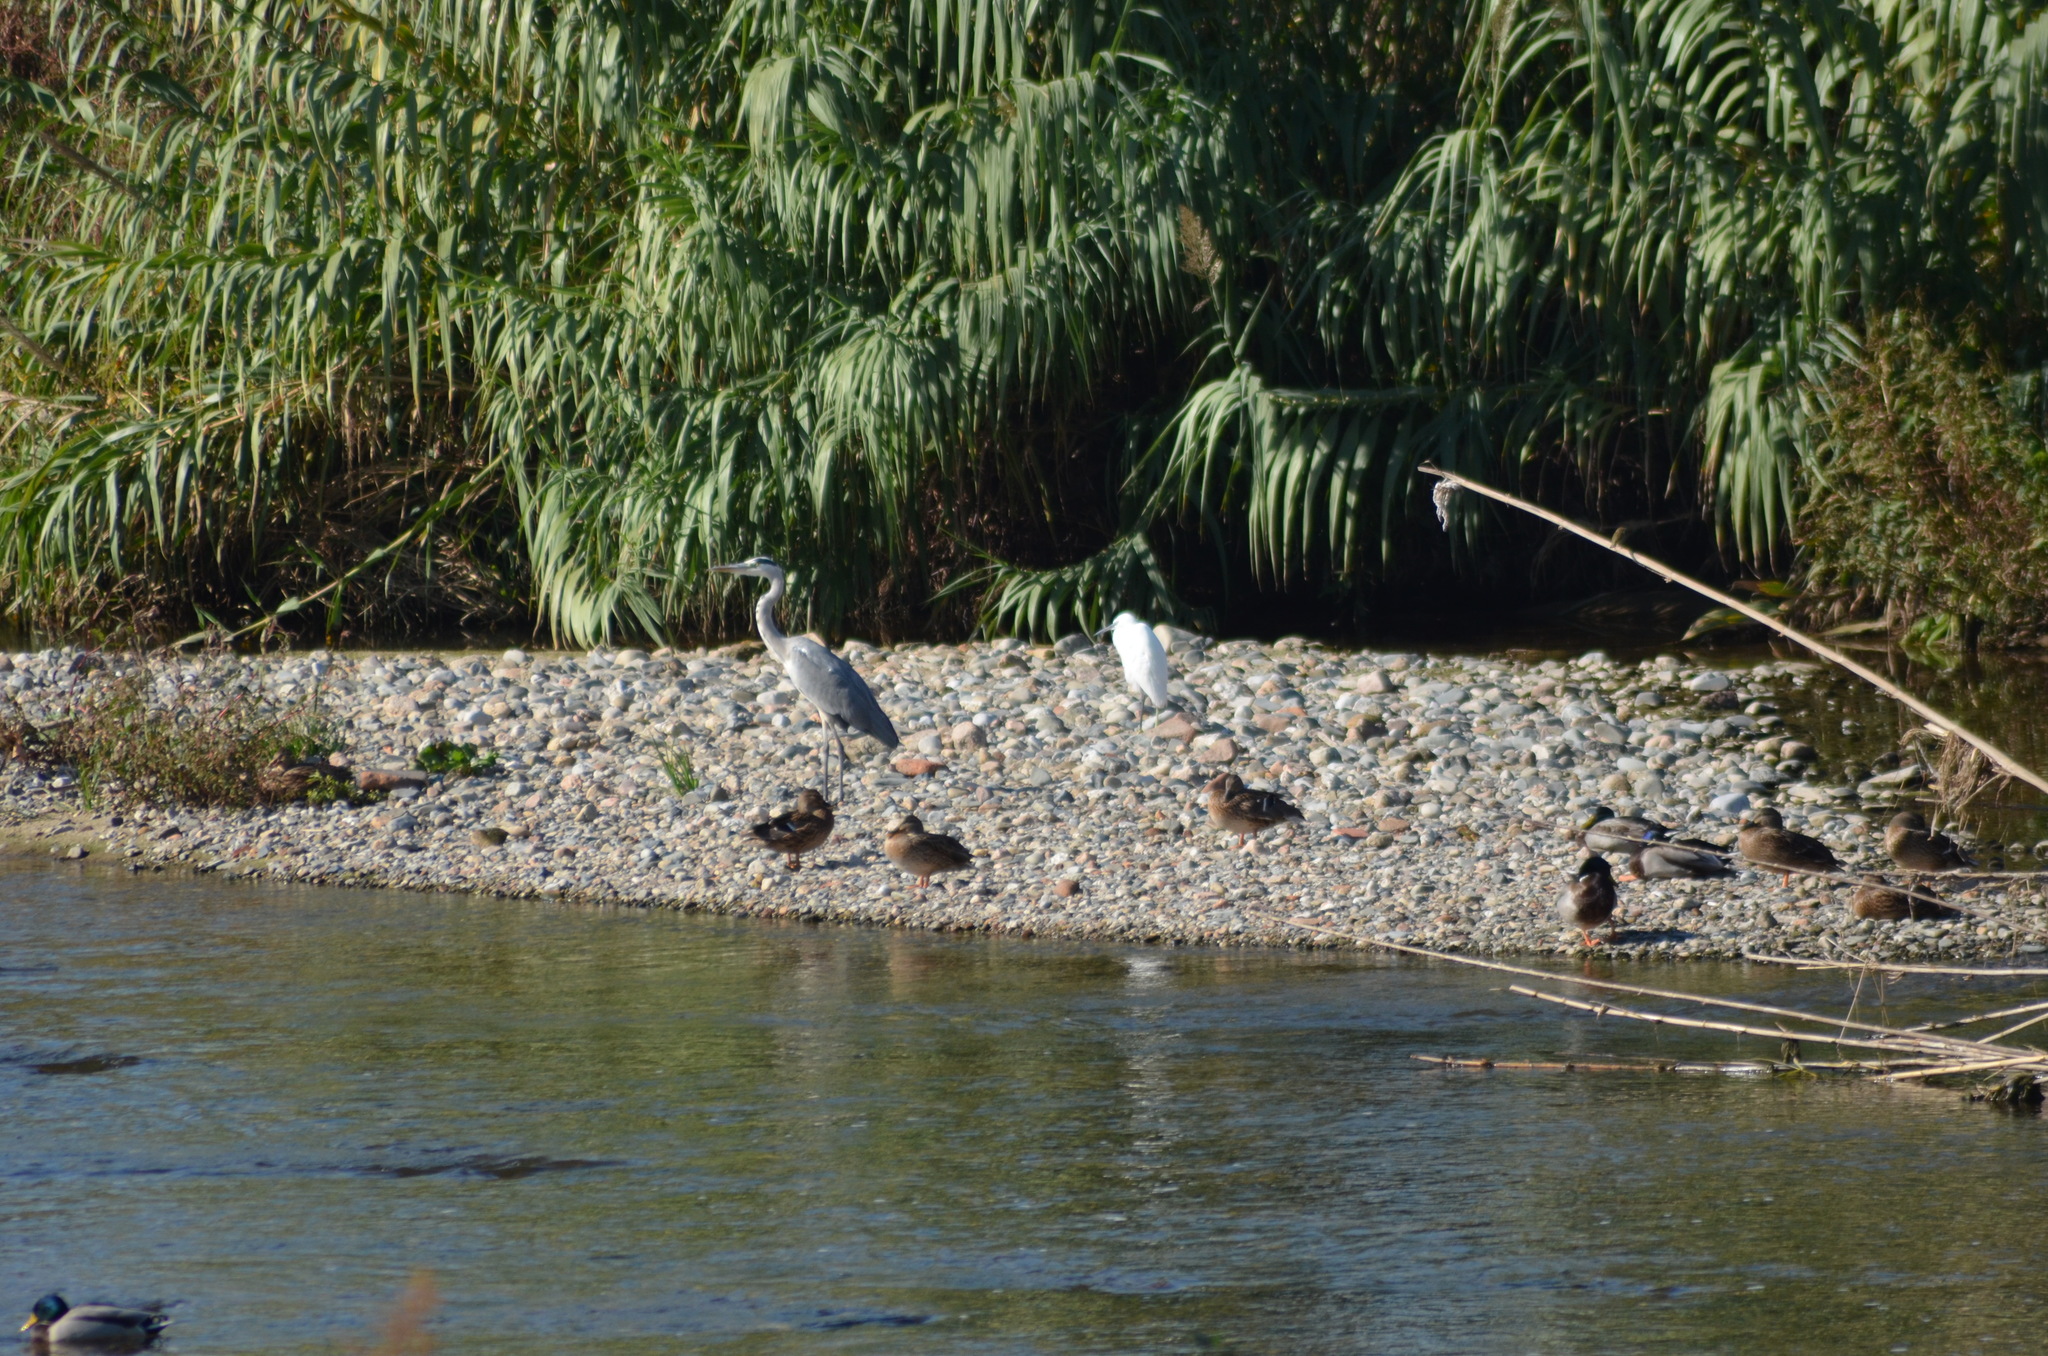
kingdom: Animalia
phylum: Chordata
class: Aves
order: Pelecaniformes
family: Ardeidae
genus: Egretta
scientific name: Egretta garzetta
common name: Little egret
